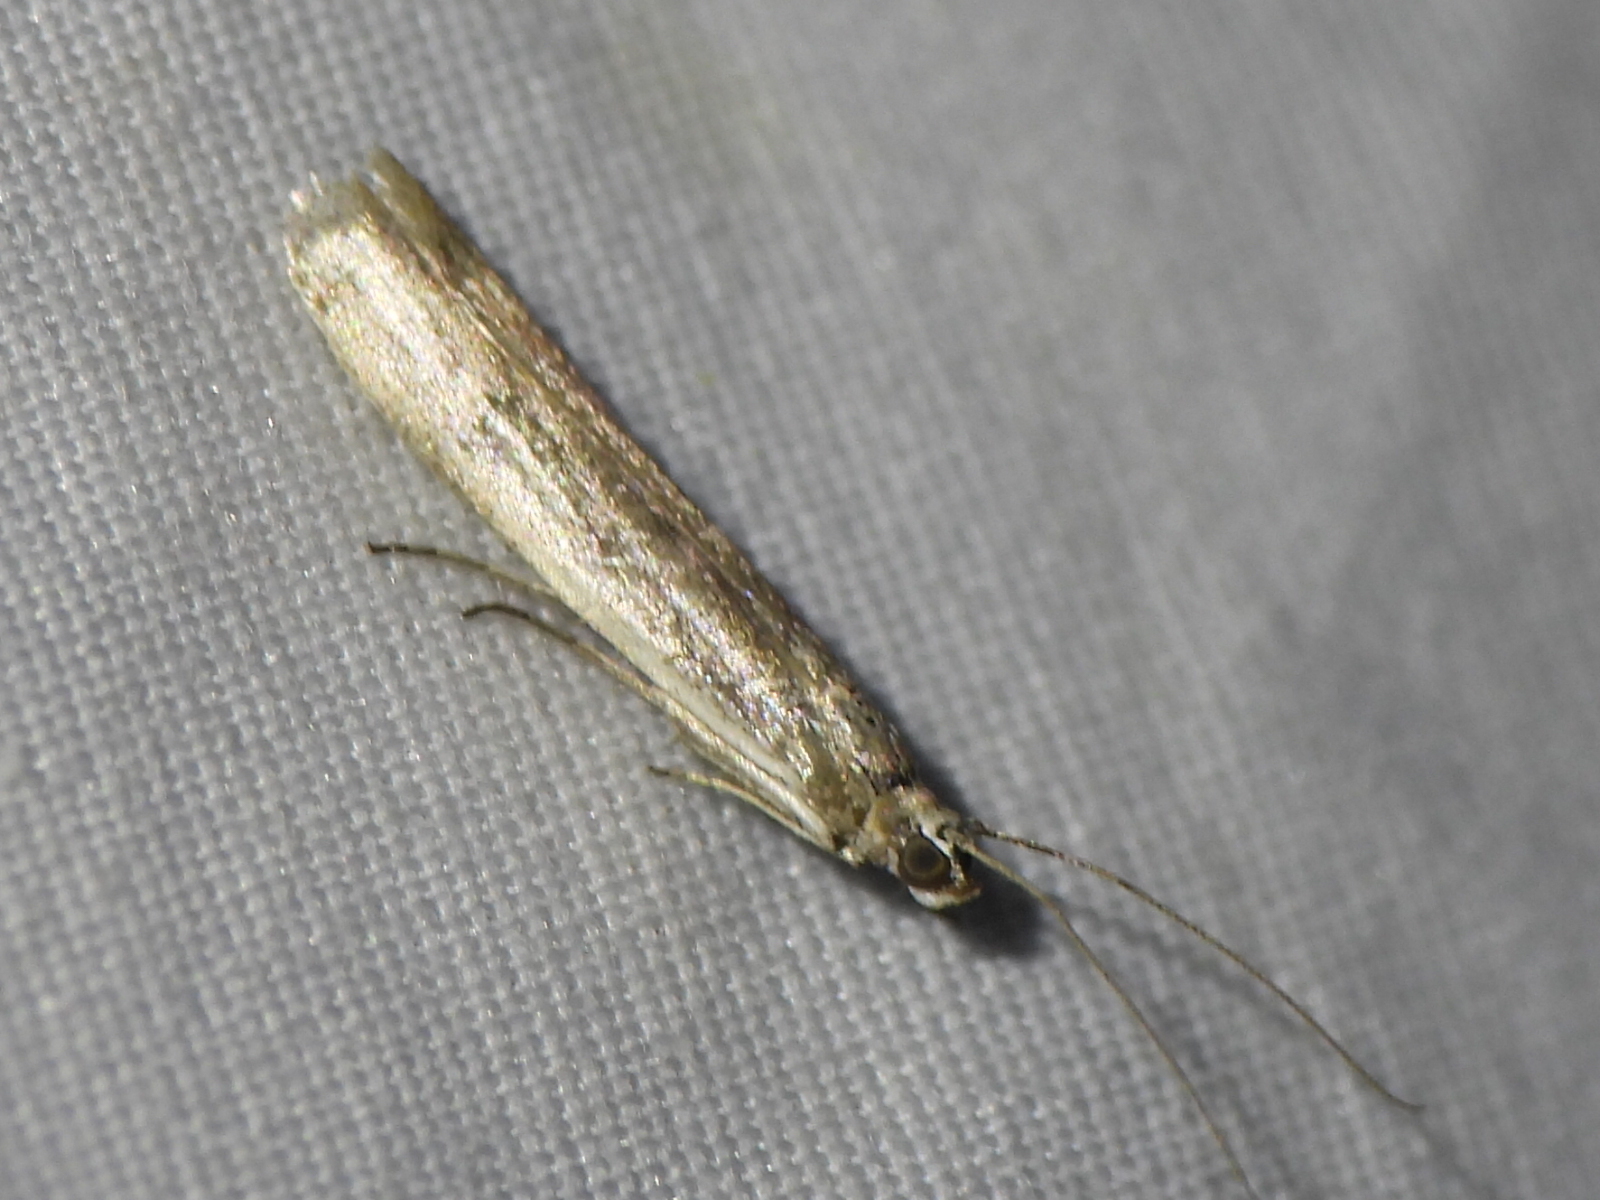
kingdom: Animalia
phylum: Arthropoda
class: Insecta
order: Lepidoptera
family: Pyralidae
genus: Homoeosoma
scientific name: Homoeosoma electella
